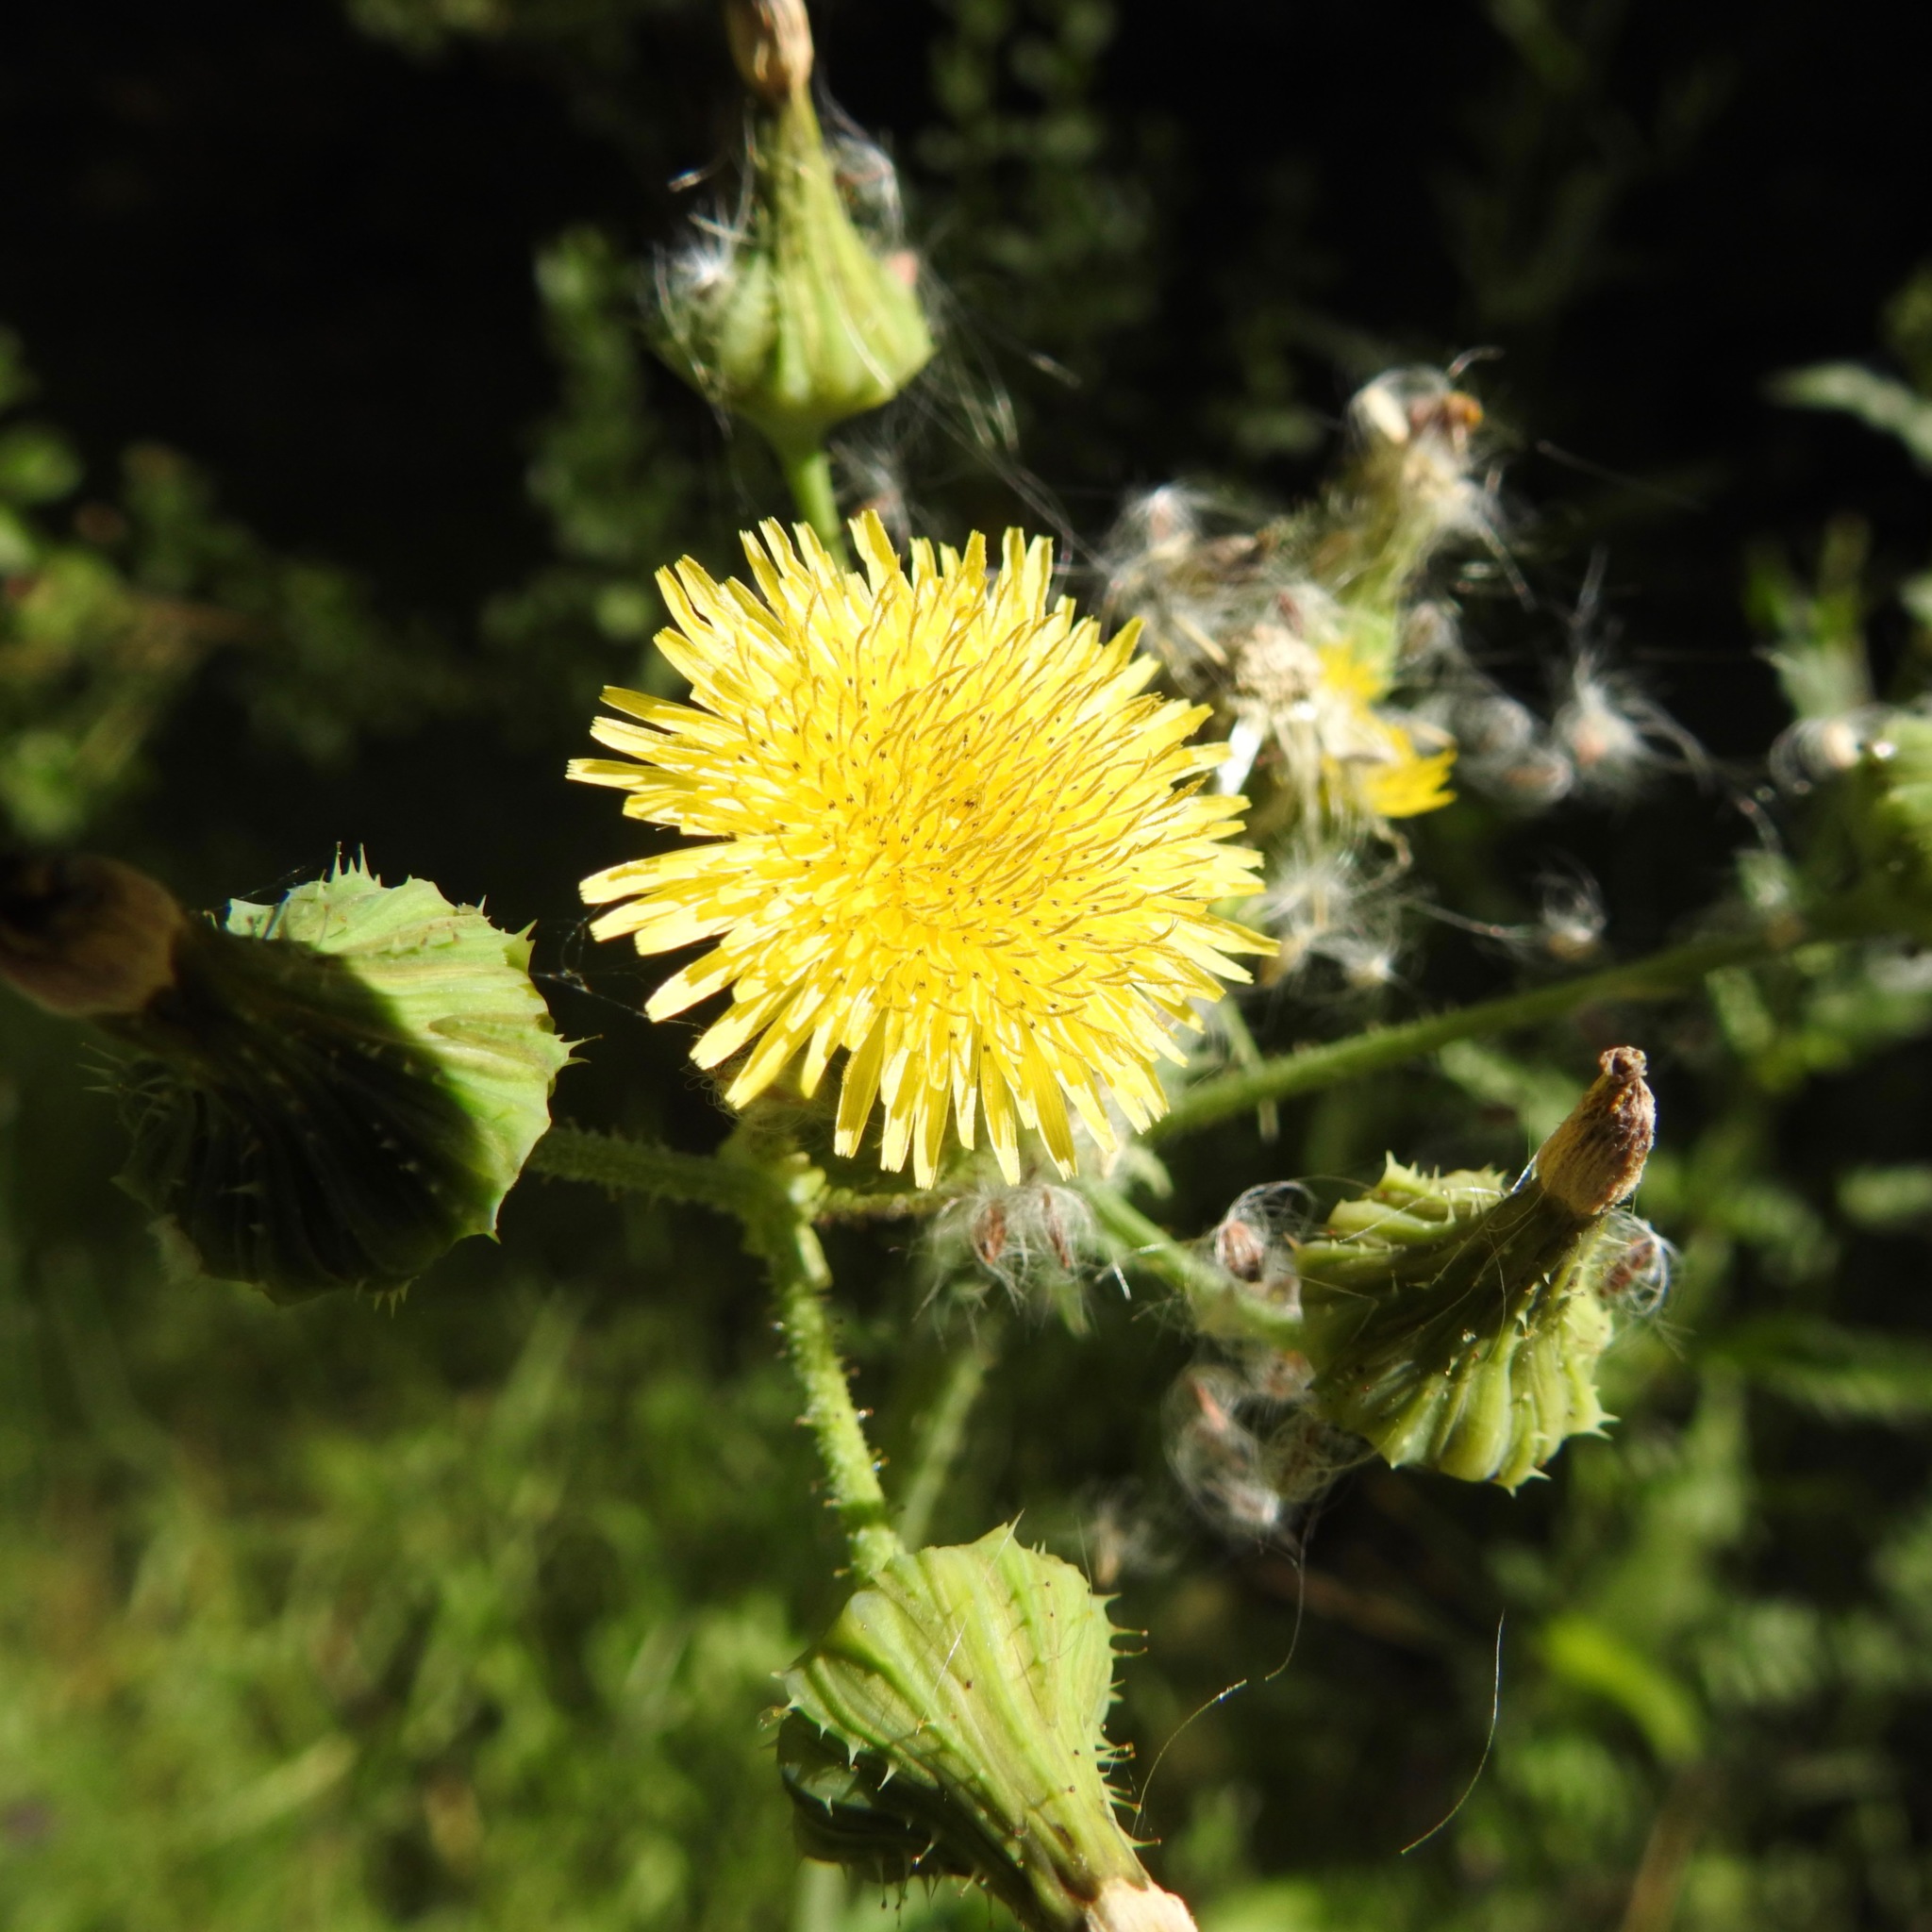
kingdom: Plantae
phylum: Tracheophyta
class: Magnoliopsida
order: Asterales
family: Asteraceae
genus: Sonchus
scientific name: Sonchus oleraceus
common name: Common sowthistle
